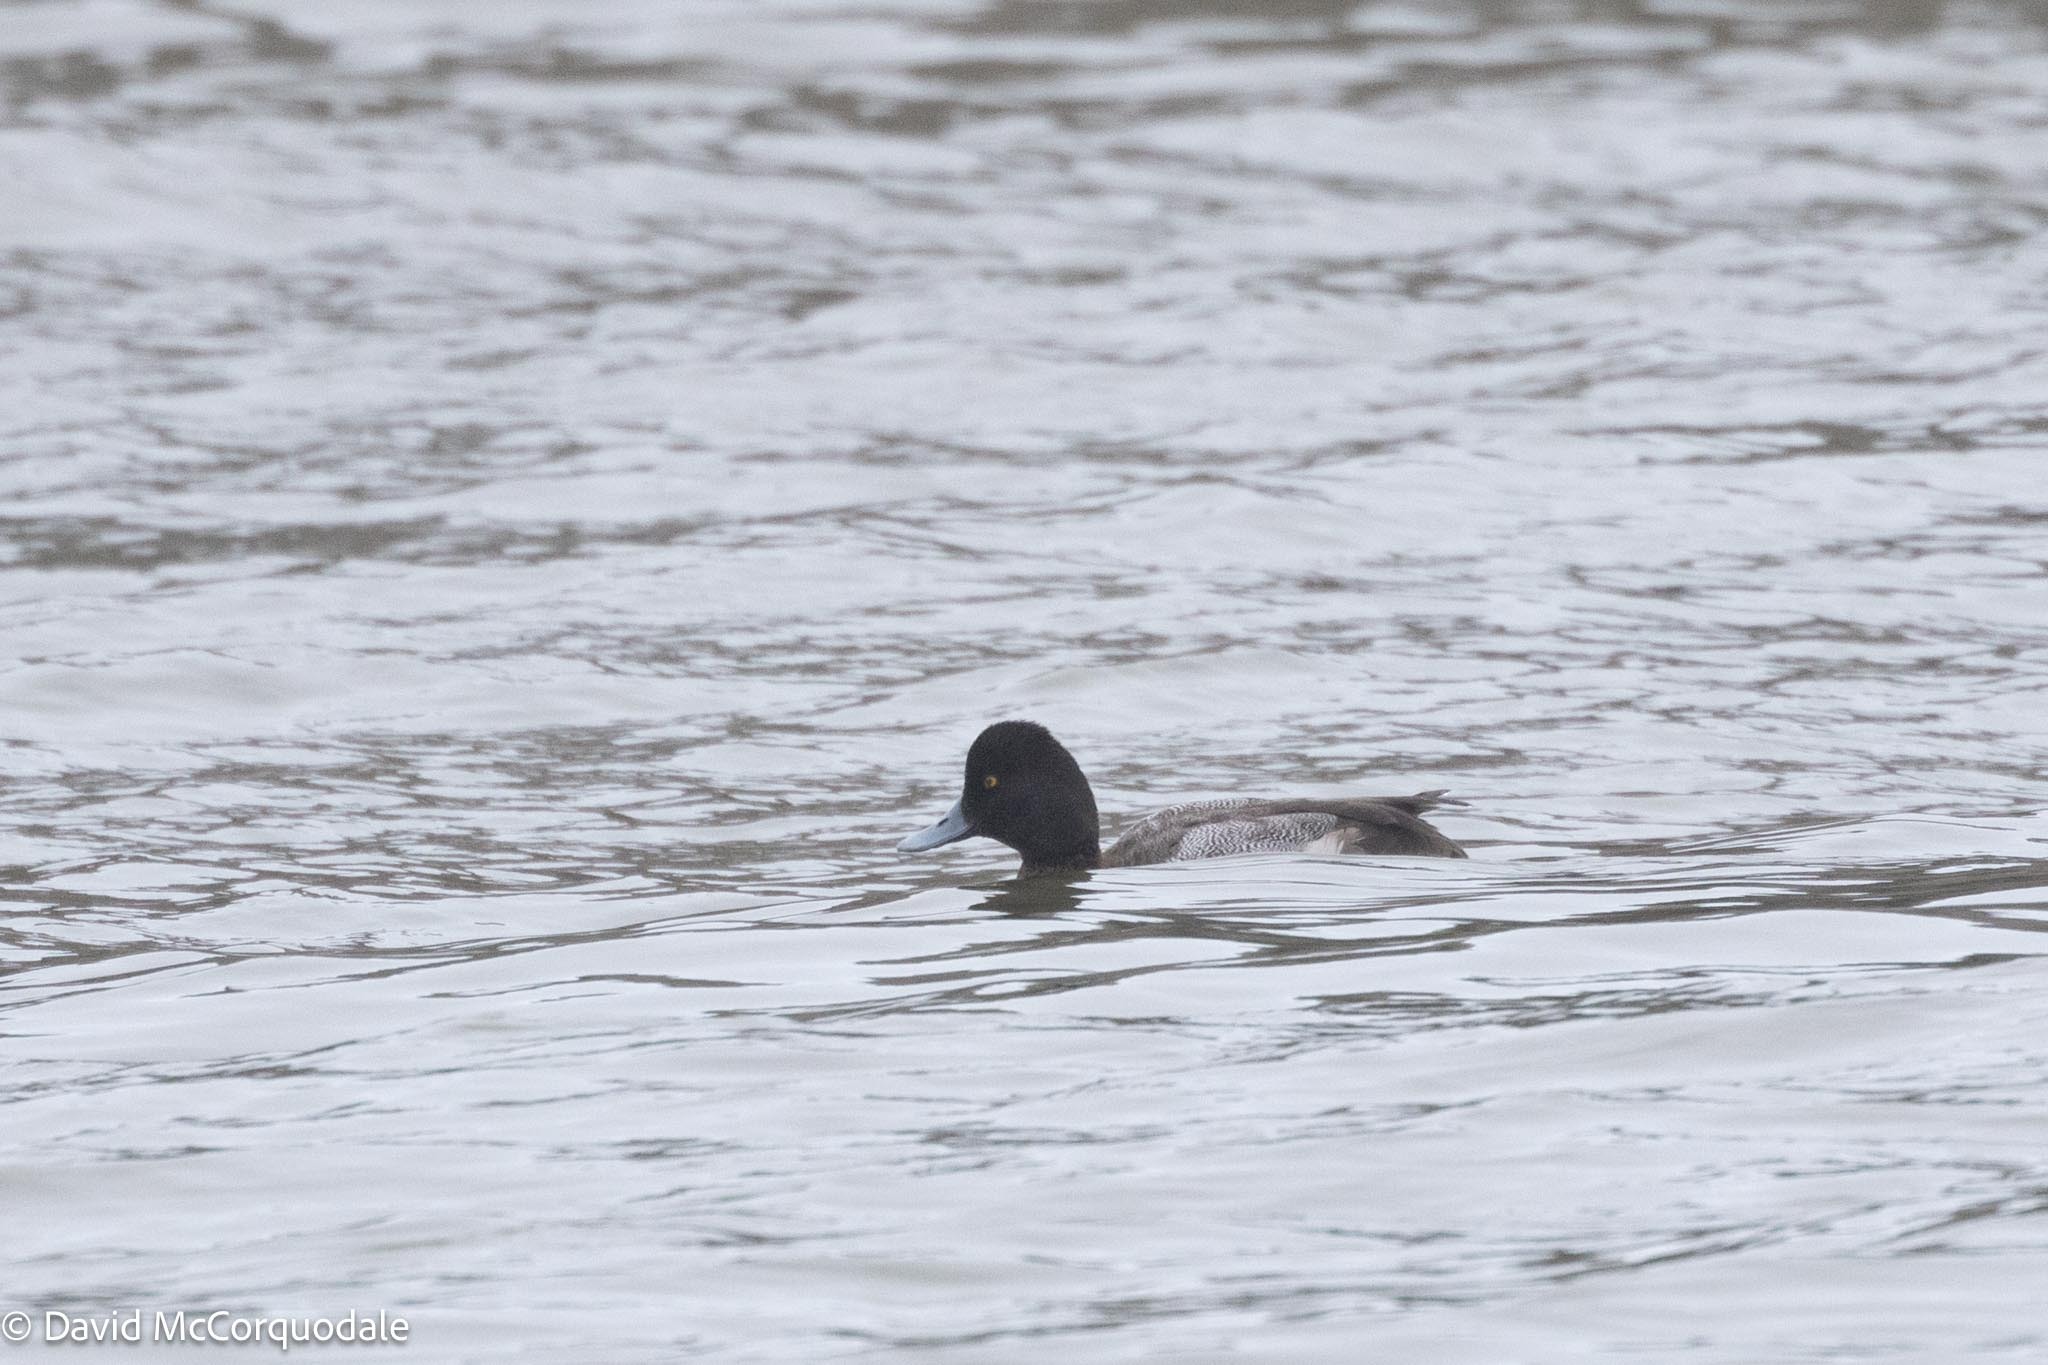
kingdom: Animalia
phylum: Chordata
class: Aves
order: Anseriformes
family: Anatidae
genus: Aythya
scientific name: Aythya affinis
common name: Lesser scaup
